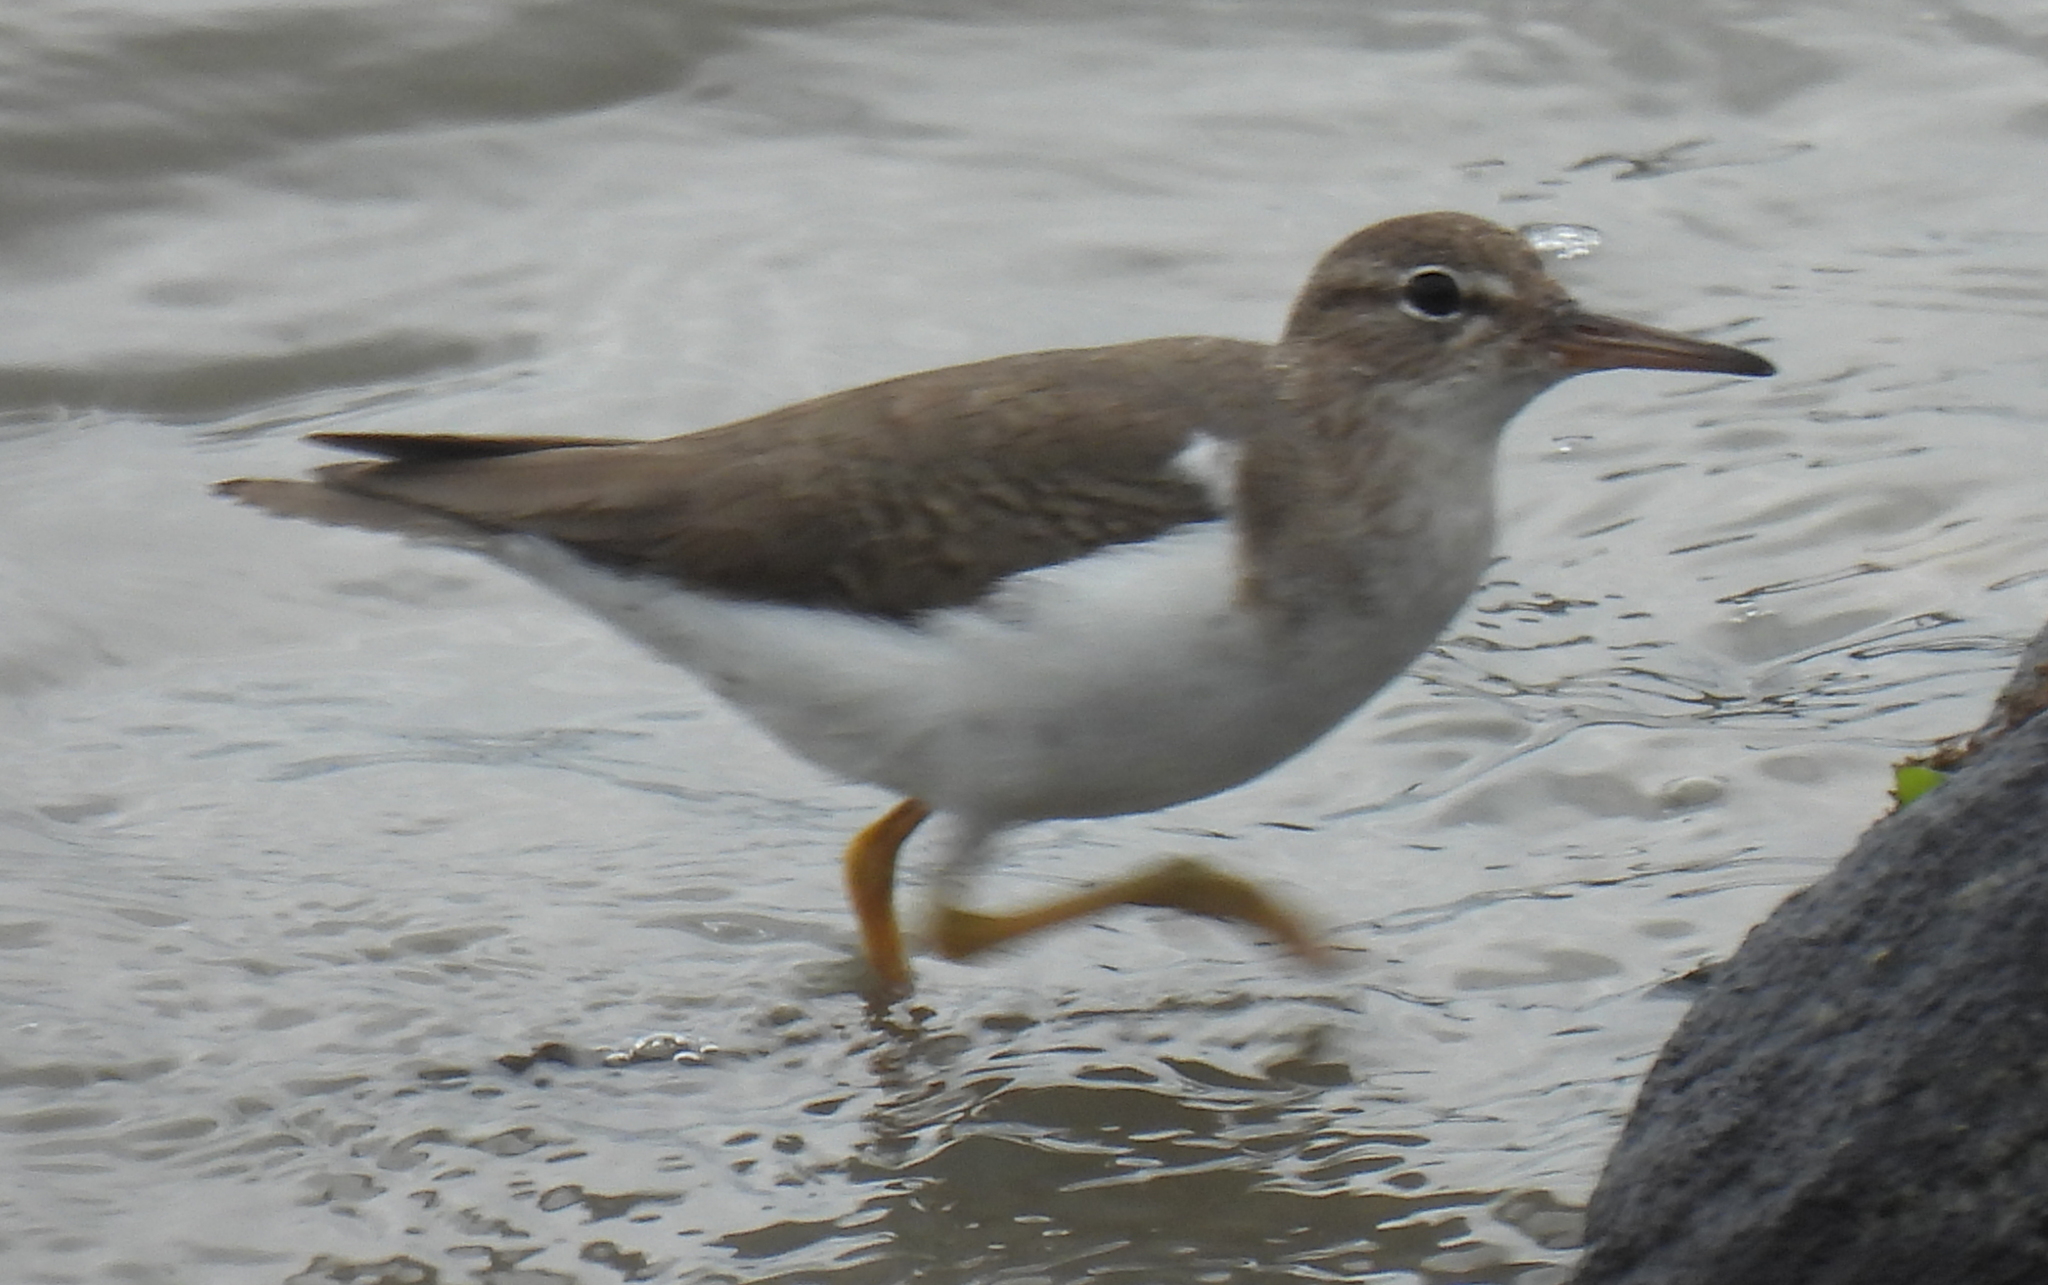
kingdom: Animalia
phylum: Chordata
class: Aves
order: Charadriiformes
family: Scolopacidae
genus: Actitis
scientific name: Actitis macularius
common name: Spotted sandpiper
